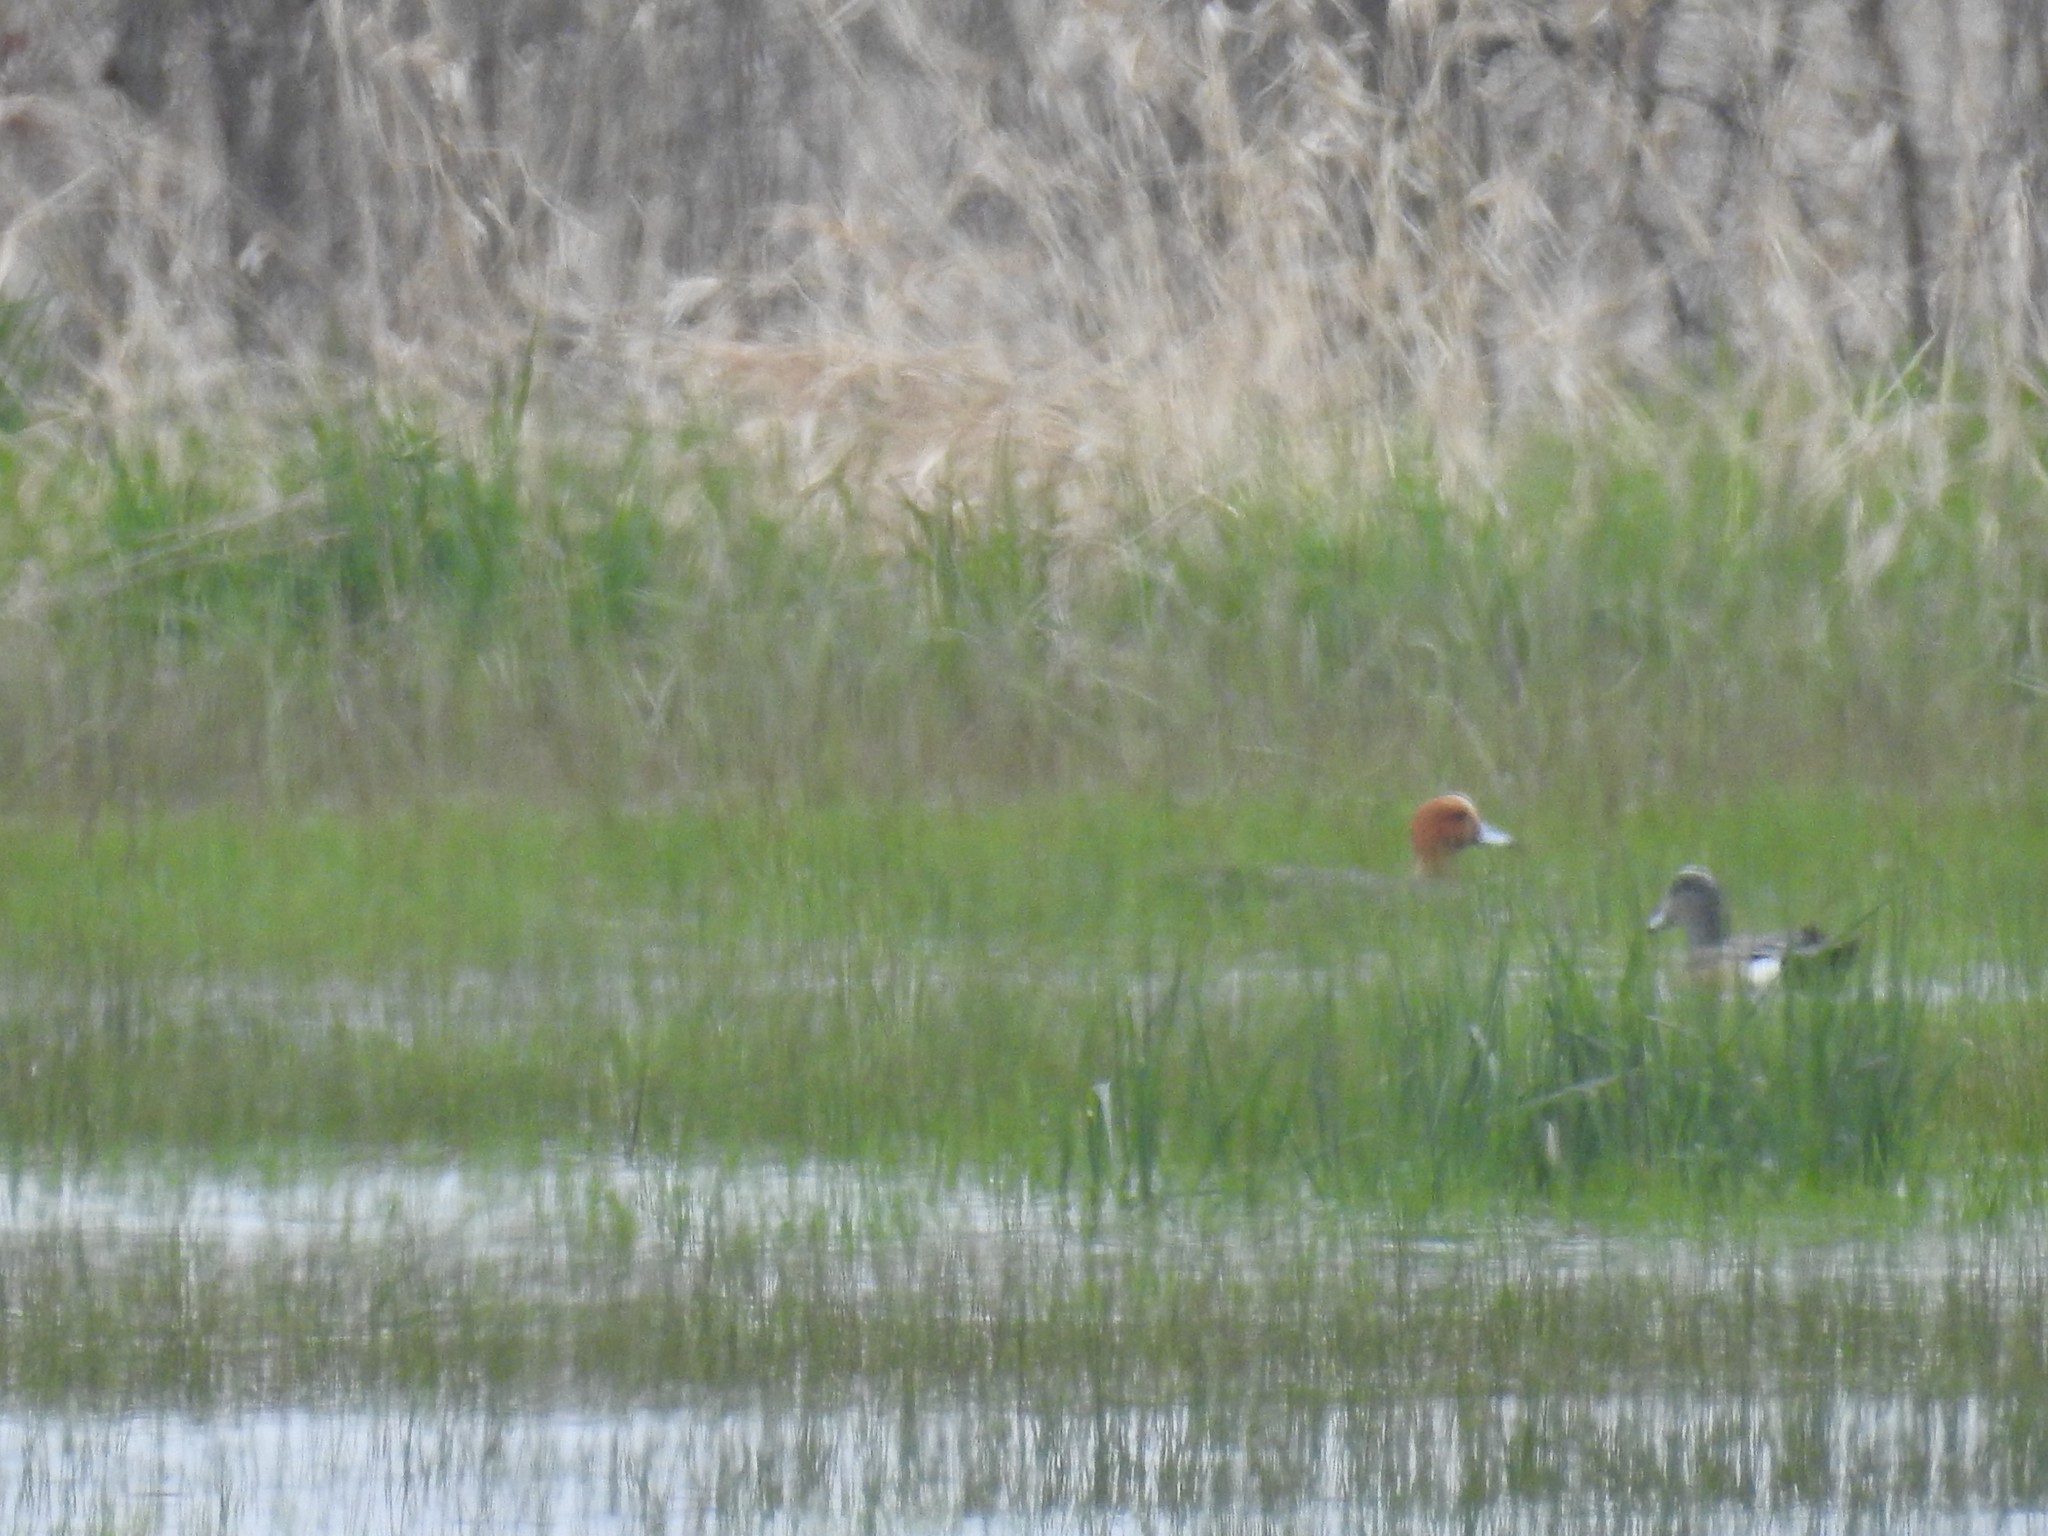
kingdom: Animalia
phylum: Chordata
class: Aves
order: Anseriformes
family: Anatidae
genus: Mareca
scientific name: Mareca penelope
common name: Eurasian wigeon
